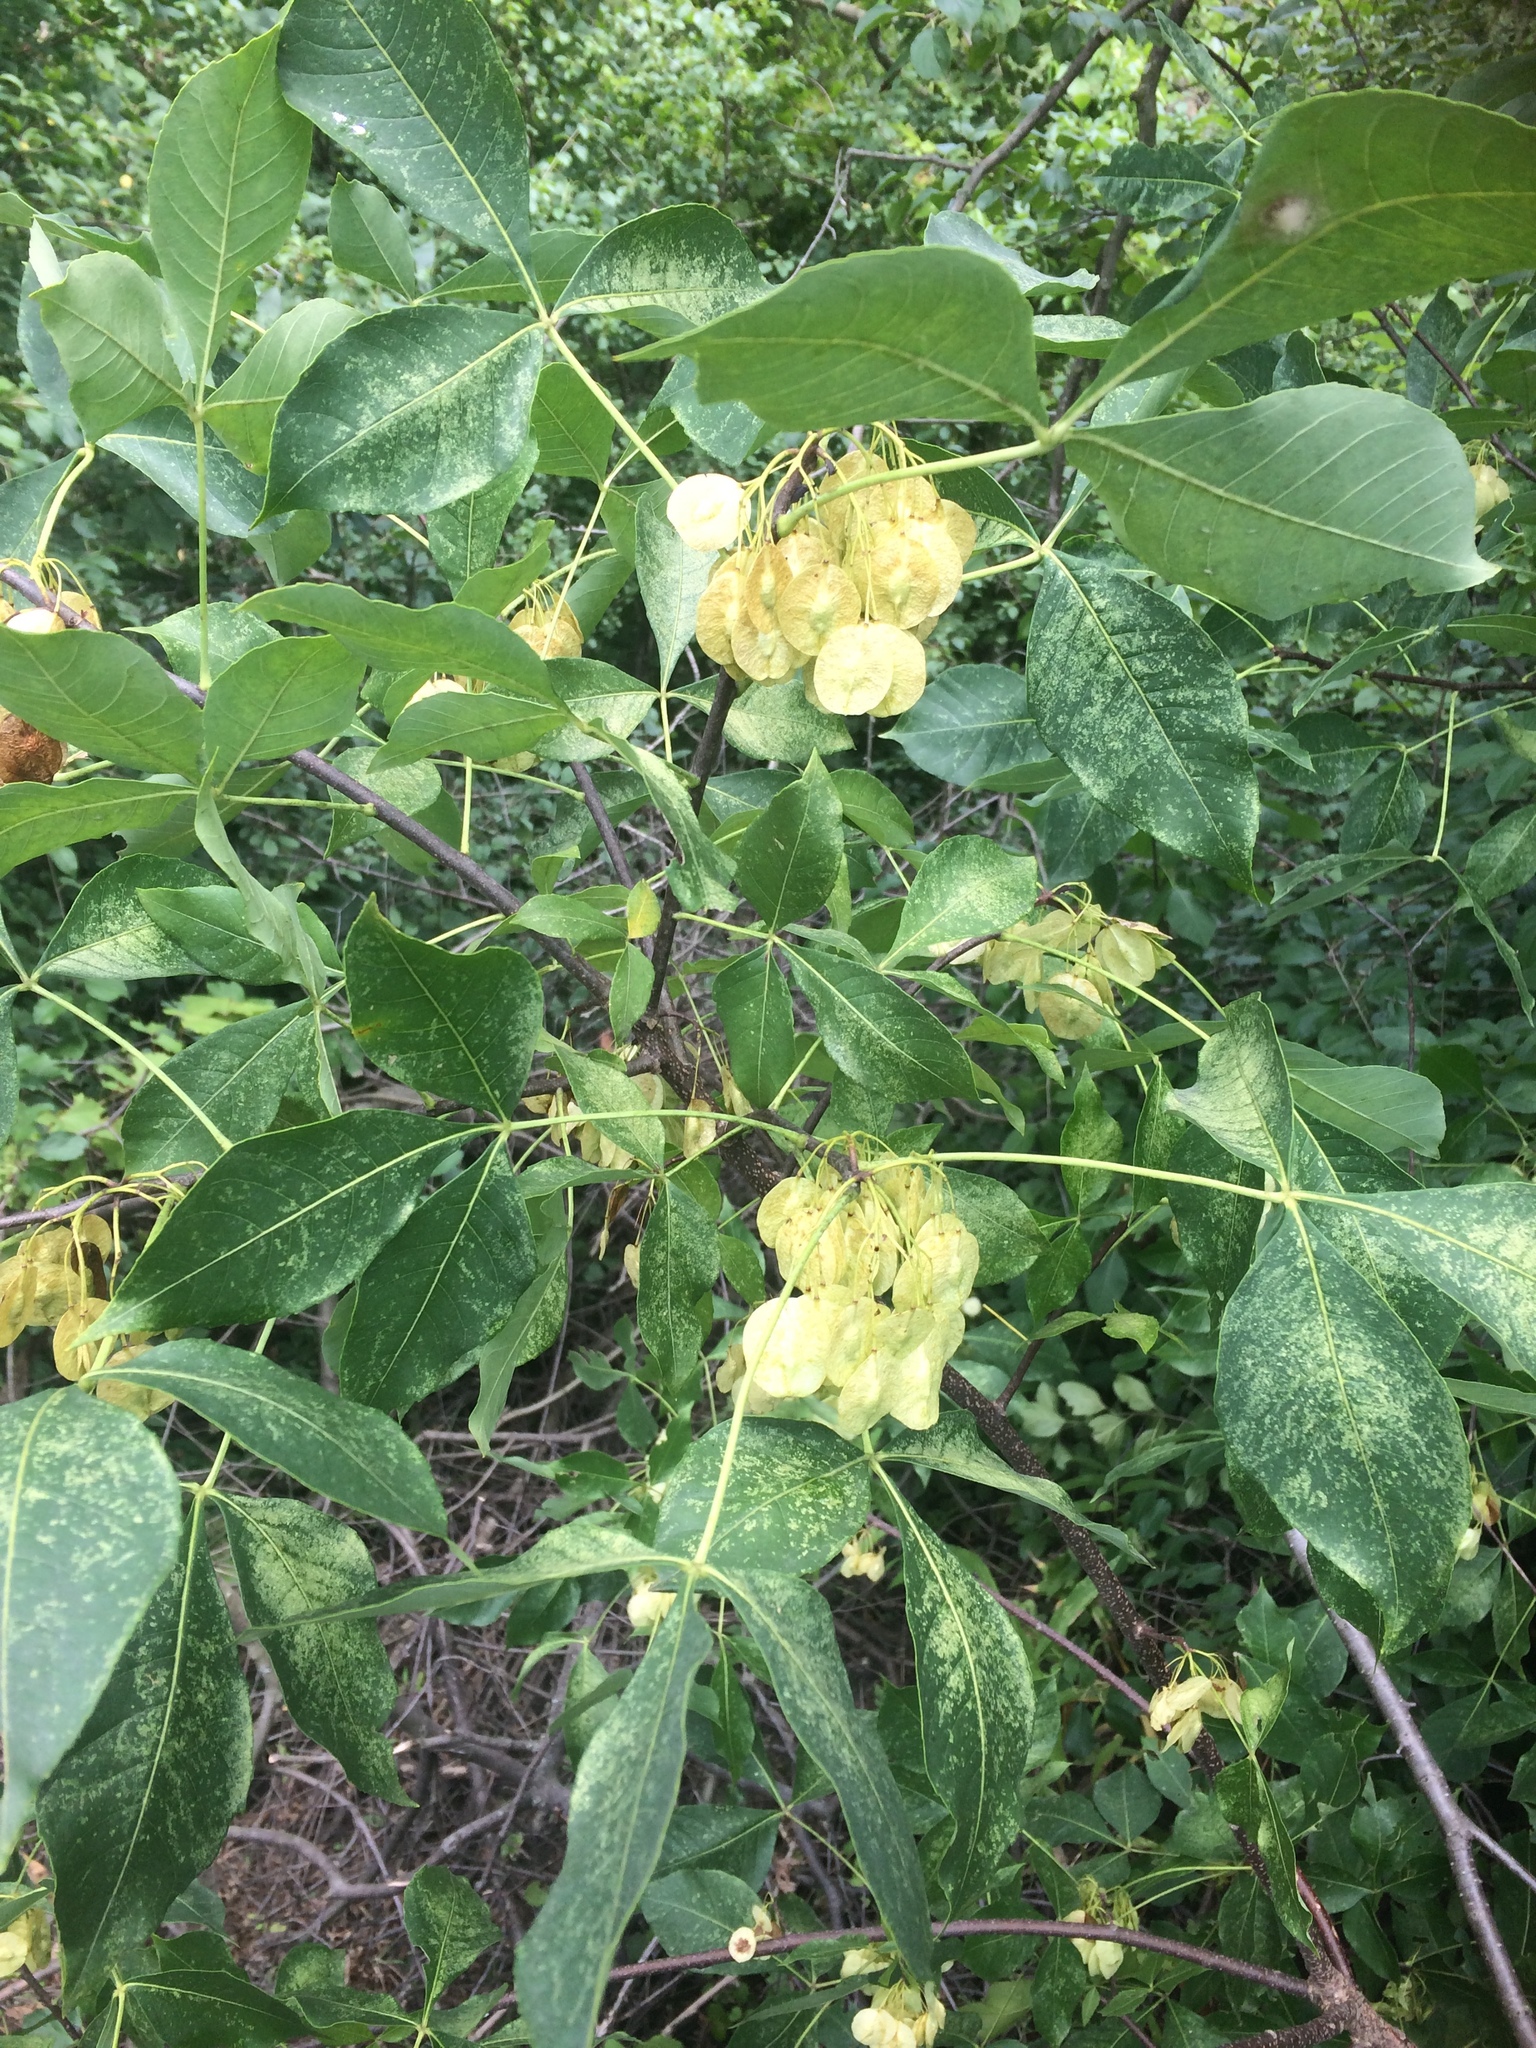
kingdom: Plantae
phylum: Tracheophyta
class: Magnoliopsida
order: Sapindales
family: Rutaceae
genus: Ptelea
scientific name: Ptelea trifoliata
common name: Common hop-tree
